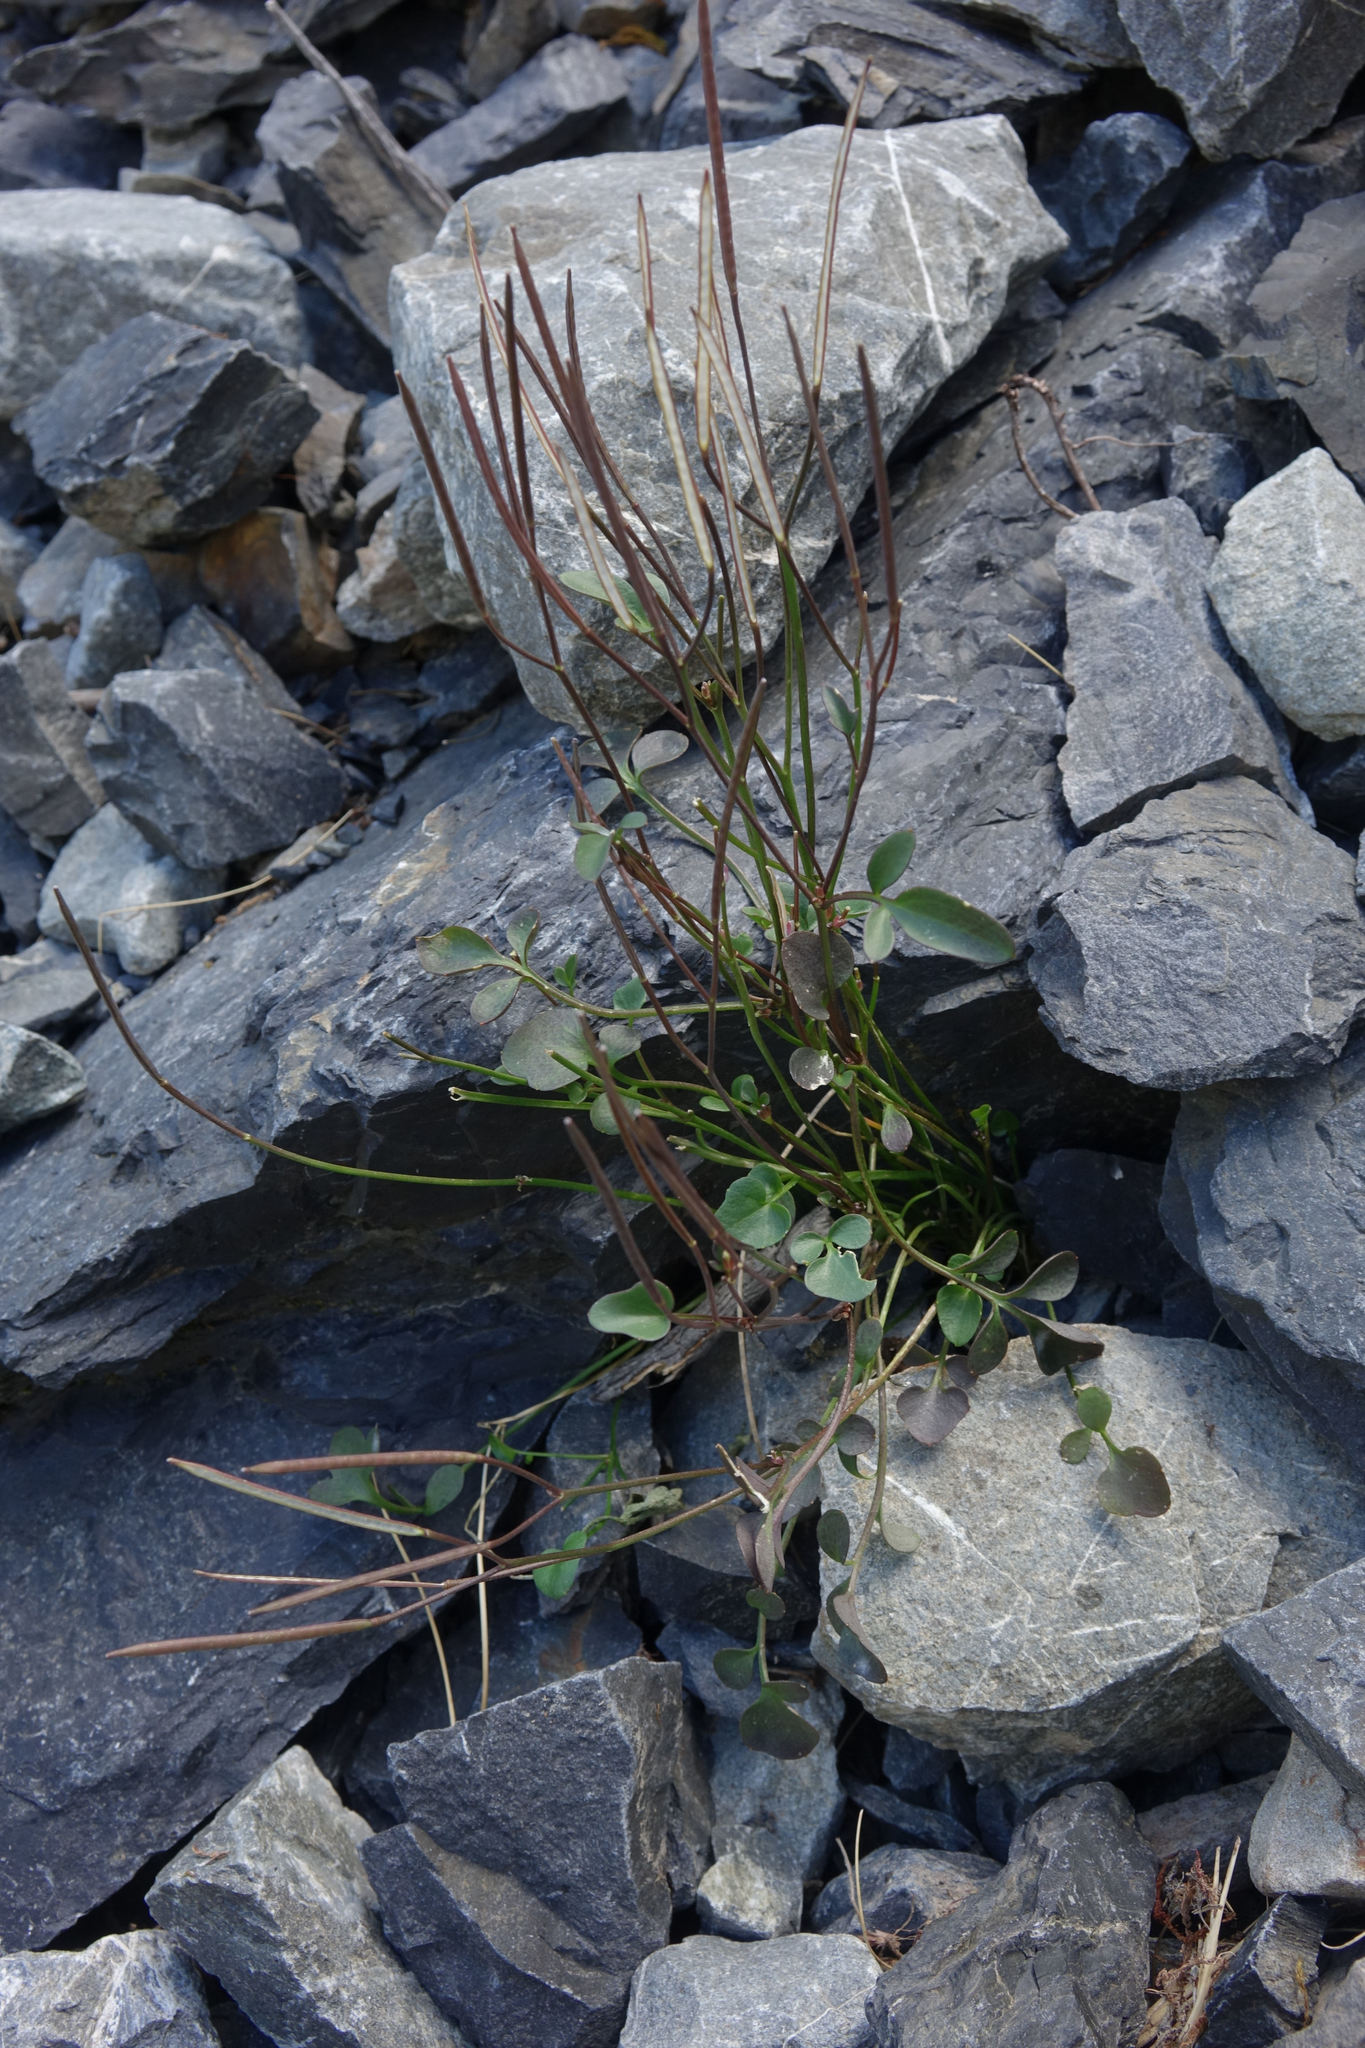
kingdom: Plantae
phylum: Tracheophyta
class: Magnoliopsida
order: Brassicales
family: Brassicaceae
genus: Cardamine
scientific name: Cardamine glara
